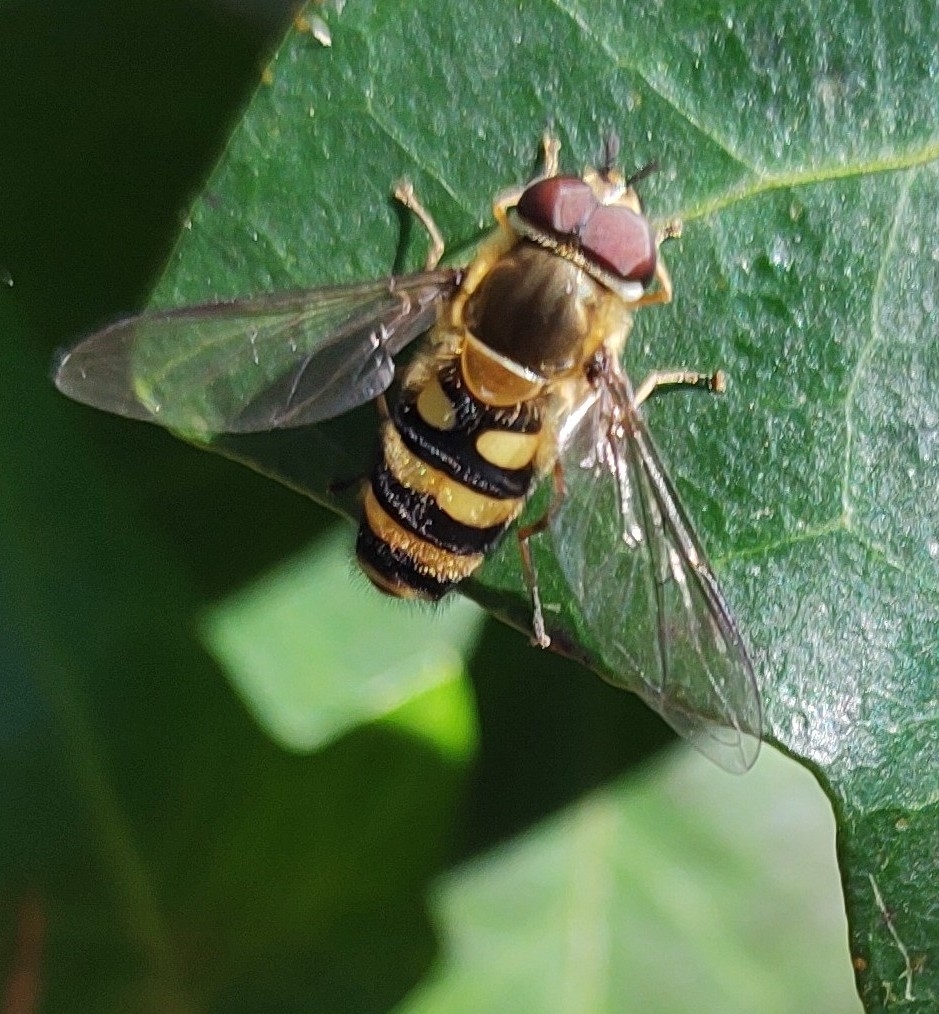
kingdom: Animalia
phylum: Arthropoda
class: Insecta
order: Diptera
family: Syrphidae
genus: Syrphus
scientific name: Syrphus
